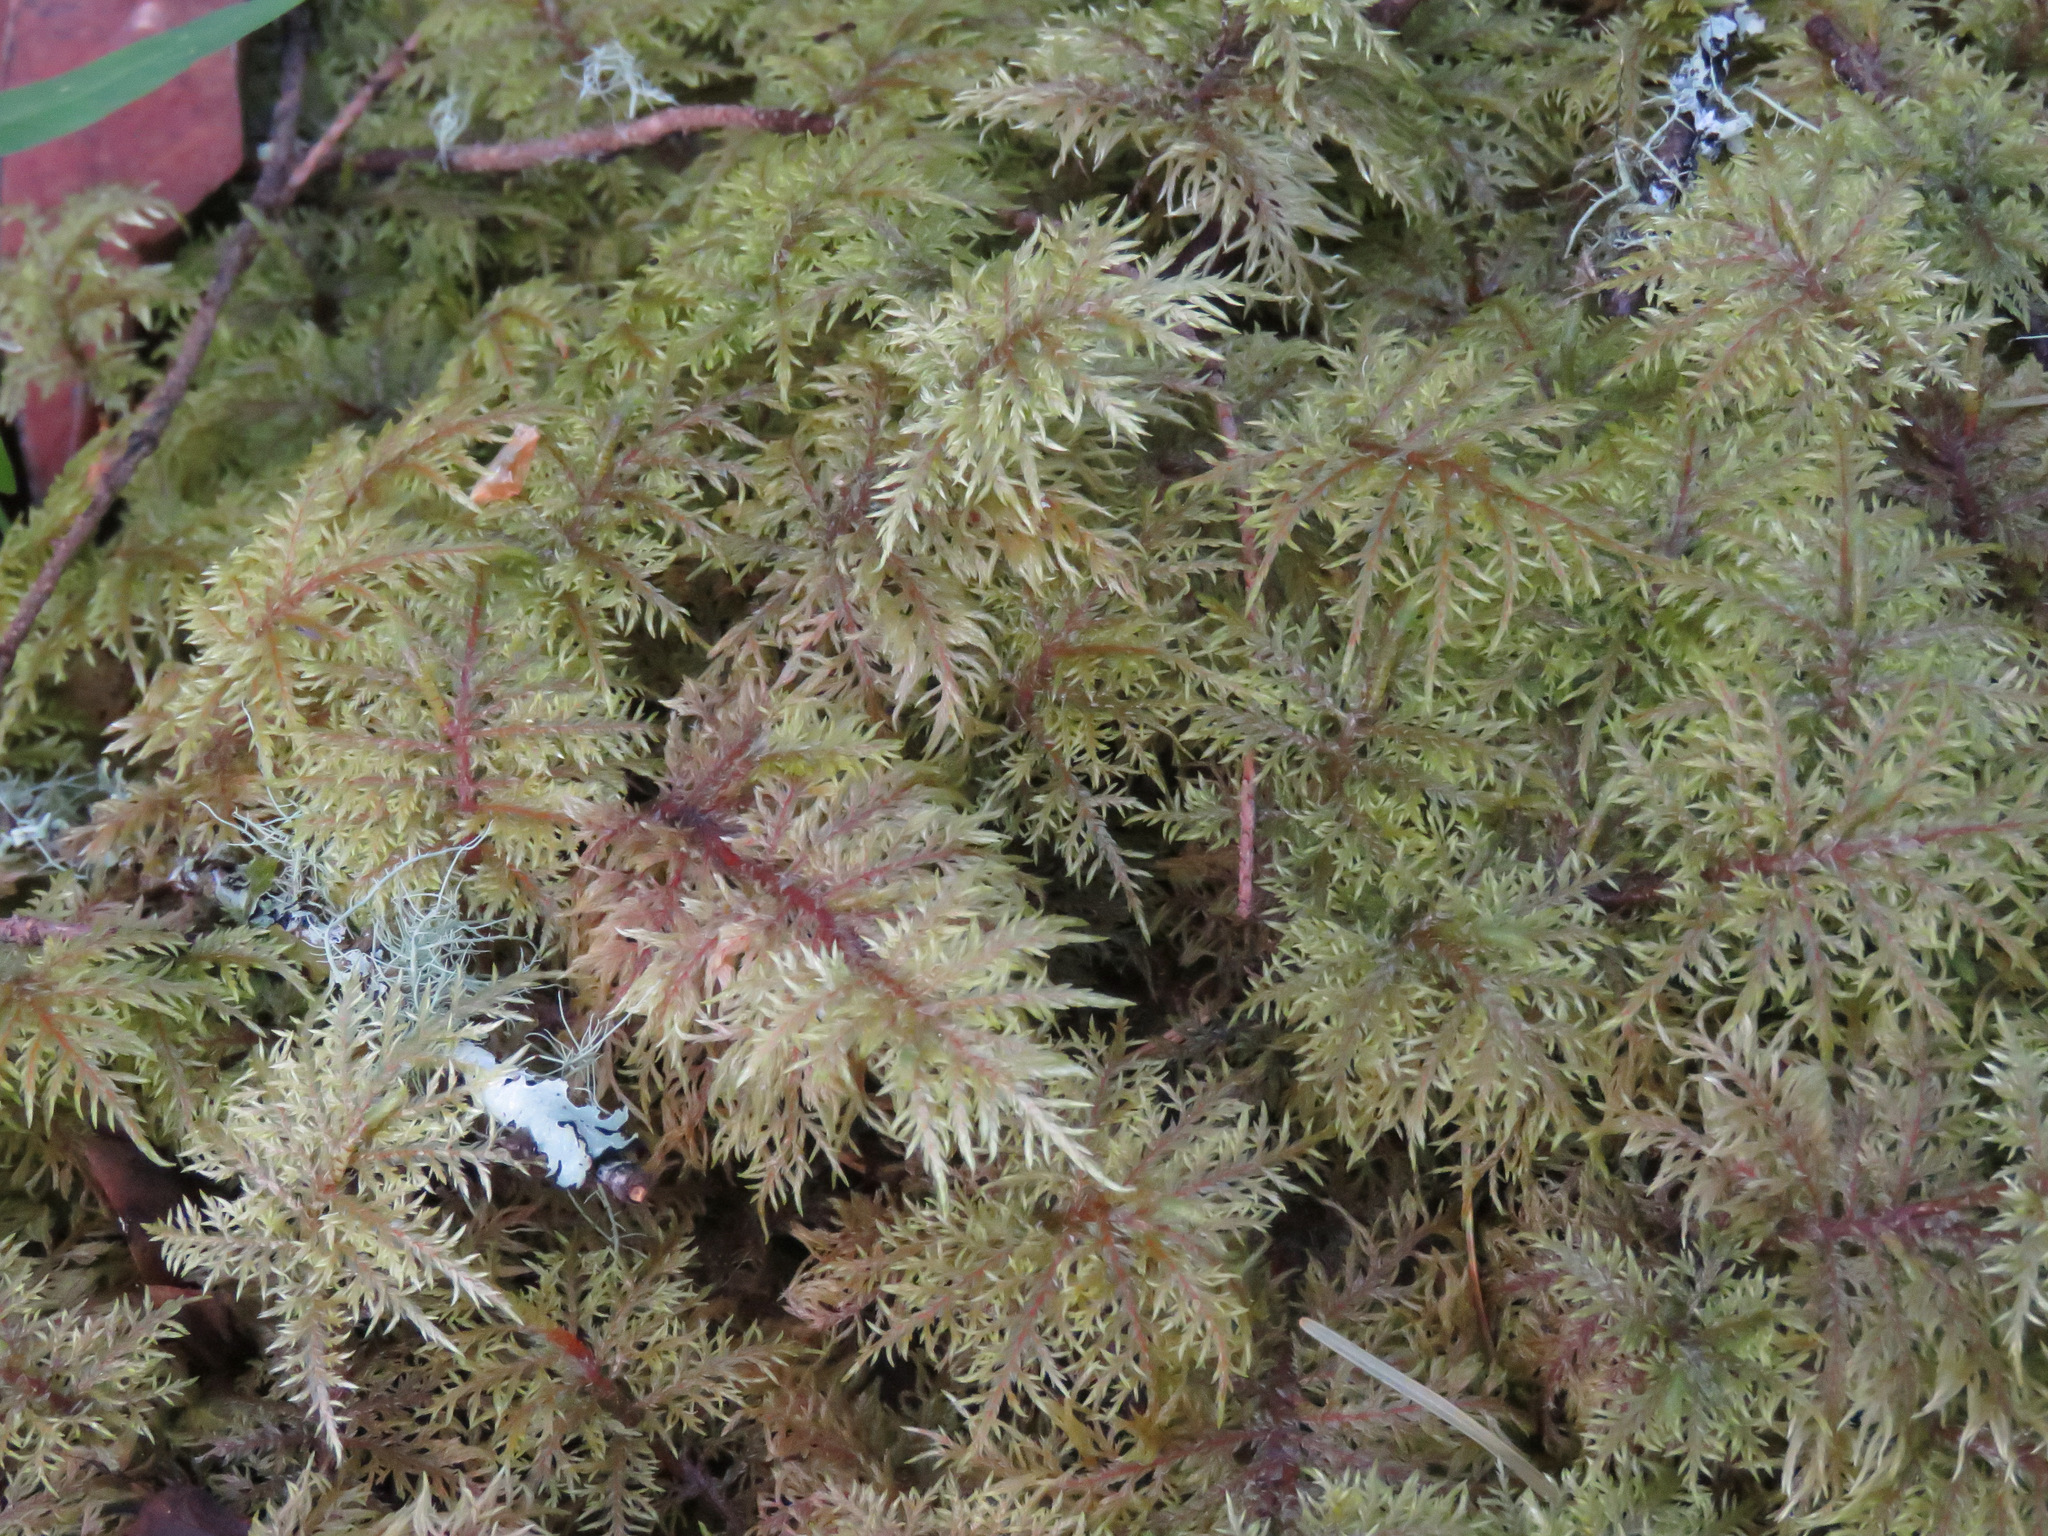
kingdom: Plantae
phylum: Bryophyta
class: Bryopsida
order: Hypnales
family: Hylocomiaceae
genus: Hylocomium
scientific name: Hylocomium splendens
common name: Stairstep moss
